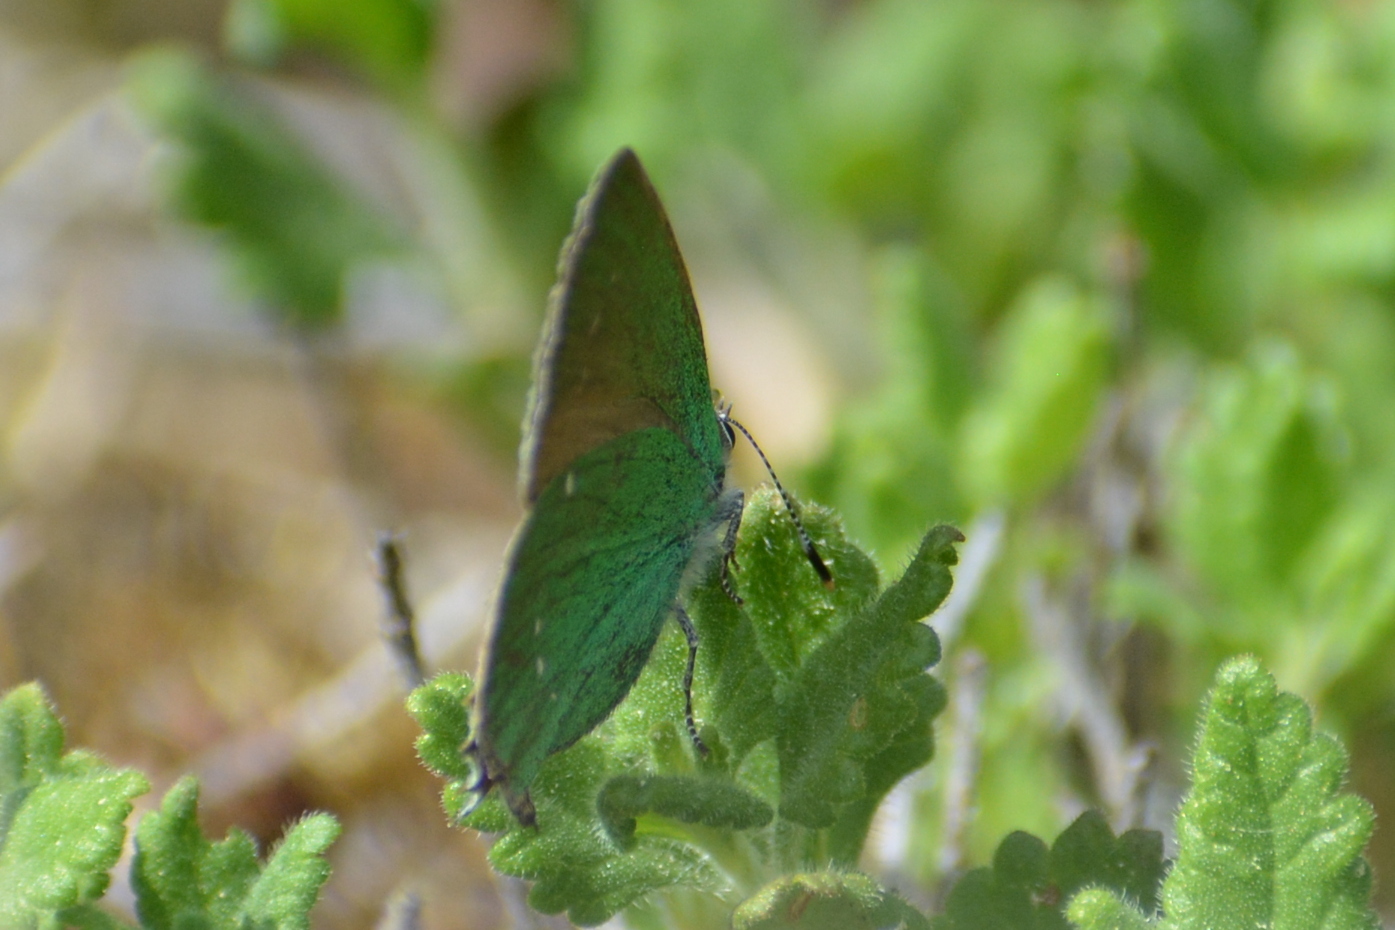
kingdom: Animalia
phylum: Arthropoda
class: Insecta
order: Lepidoptera
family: Lycaenidae
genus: Callophrys
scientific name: Callophrys rubi
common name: Green hairstreak
